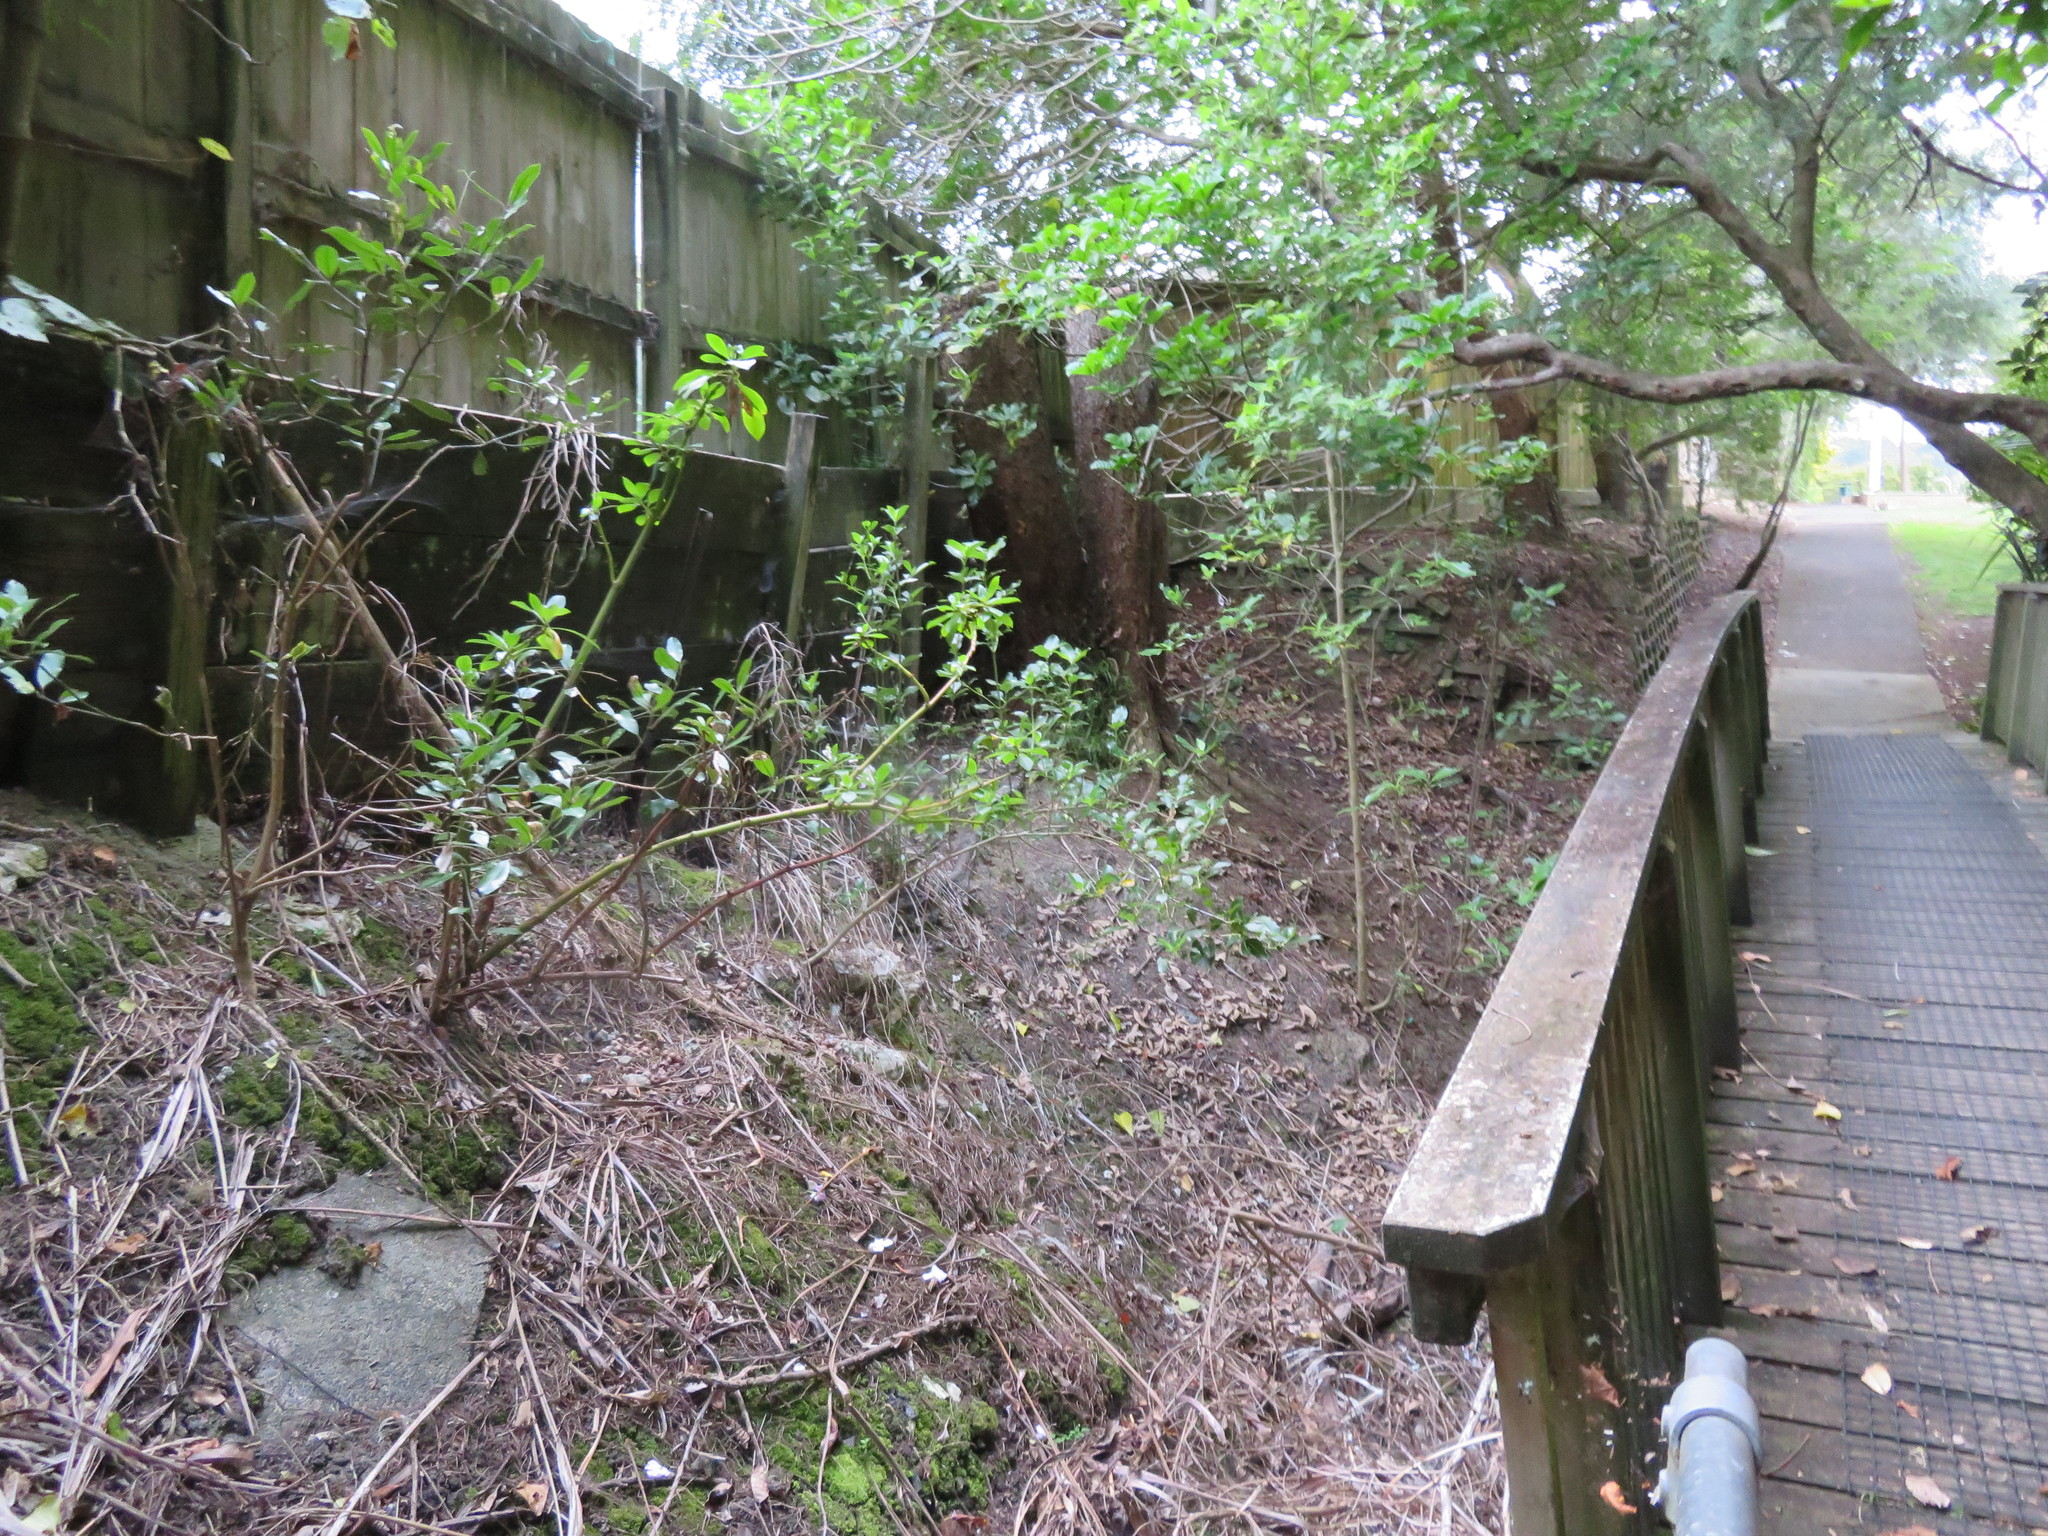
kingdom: Plantae
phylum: Tracheophyta
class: Magnoliopsida
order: Lamiales
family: Lamiaceae
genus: Vitex
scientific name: Vitex lucens
